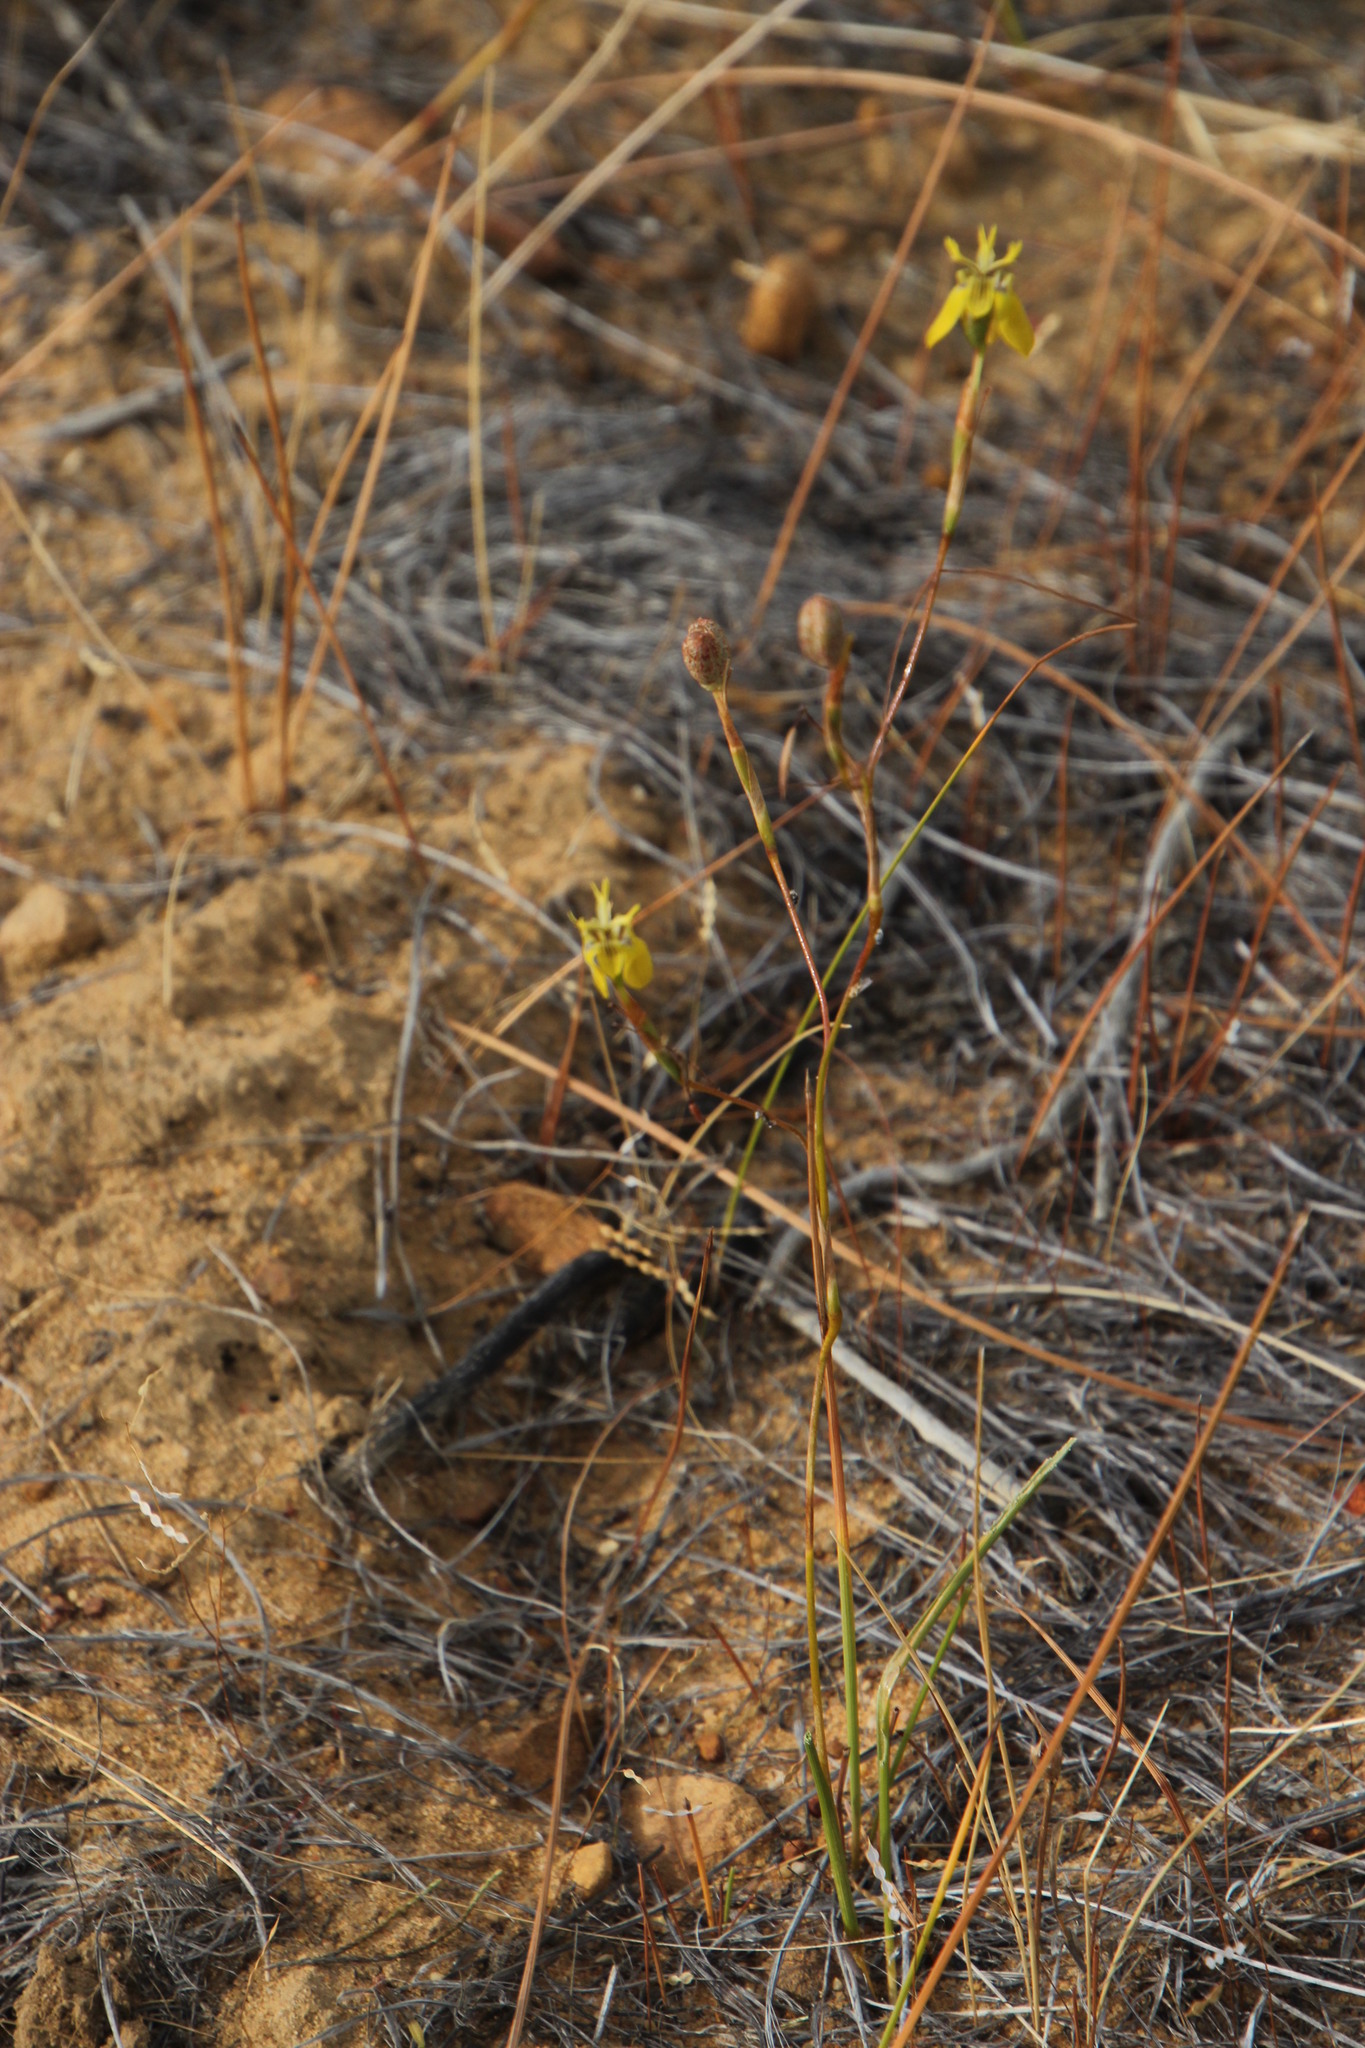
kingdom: Plantae
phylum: Tracheophyta
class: Liliopsida
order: Asparagales
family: Iridaceae
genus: Moraea
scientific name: Moraea inconspicua
